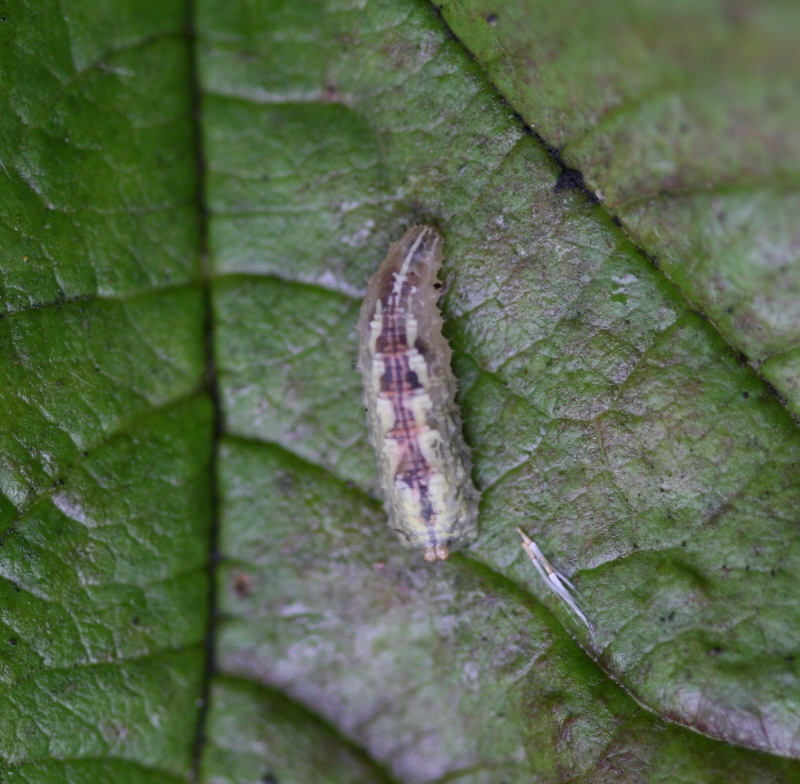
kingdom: Animalia
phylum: Arthropoda
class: Insecta
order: Diptera
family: Syrphidae
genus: Syrphus
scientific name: Syrphus
